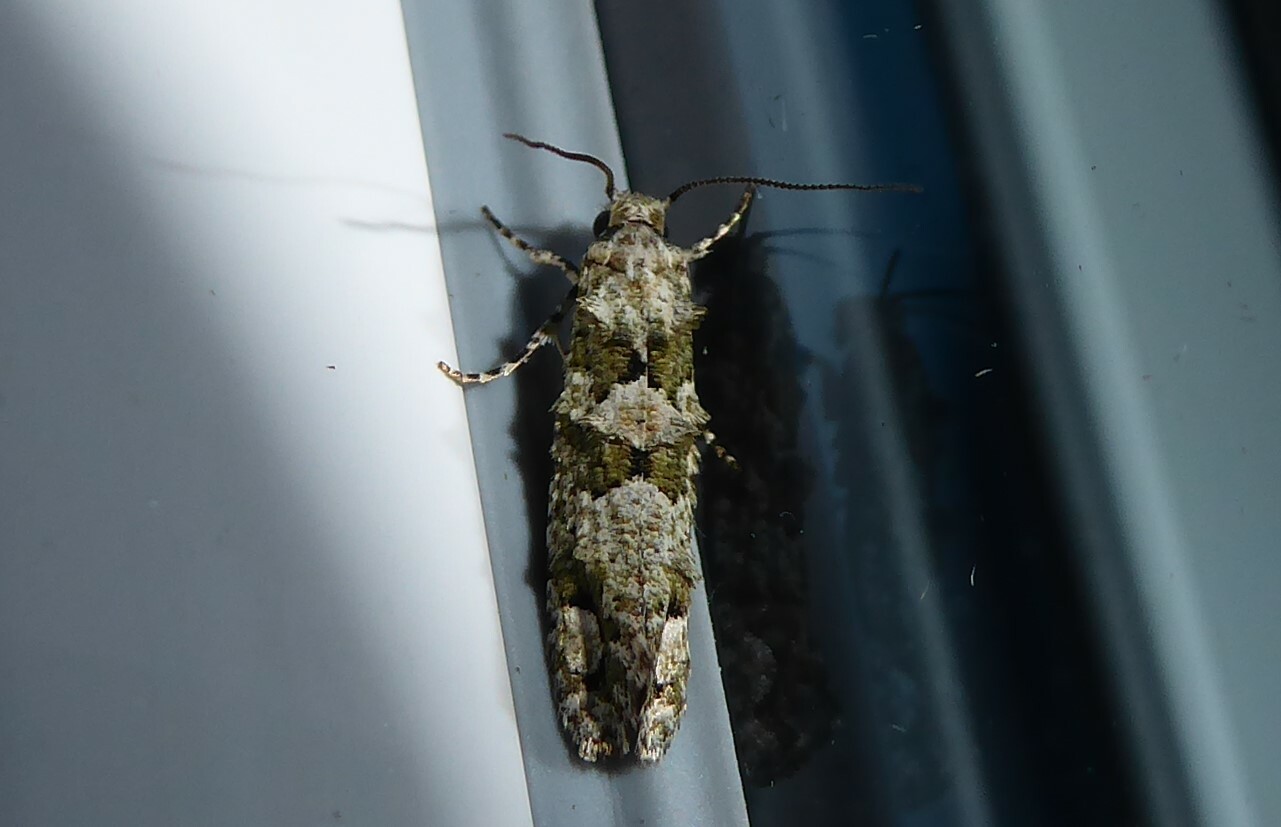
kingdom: Animalia
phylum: Arthropoda
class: Insecta
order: Lepidoptera
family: Tineidae
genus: Lysiphragma
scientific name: Lysiphragma howesii
